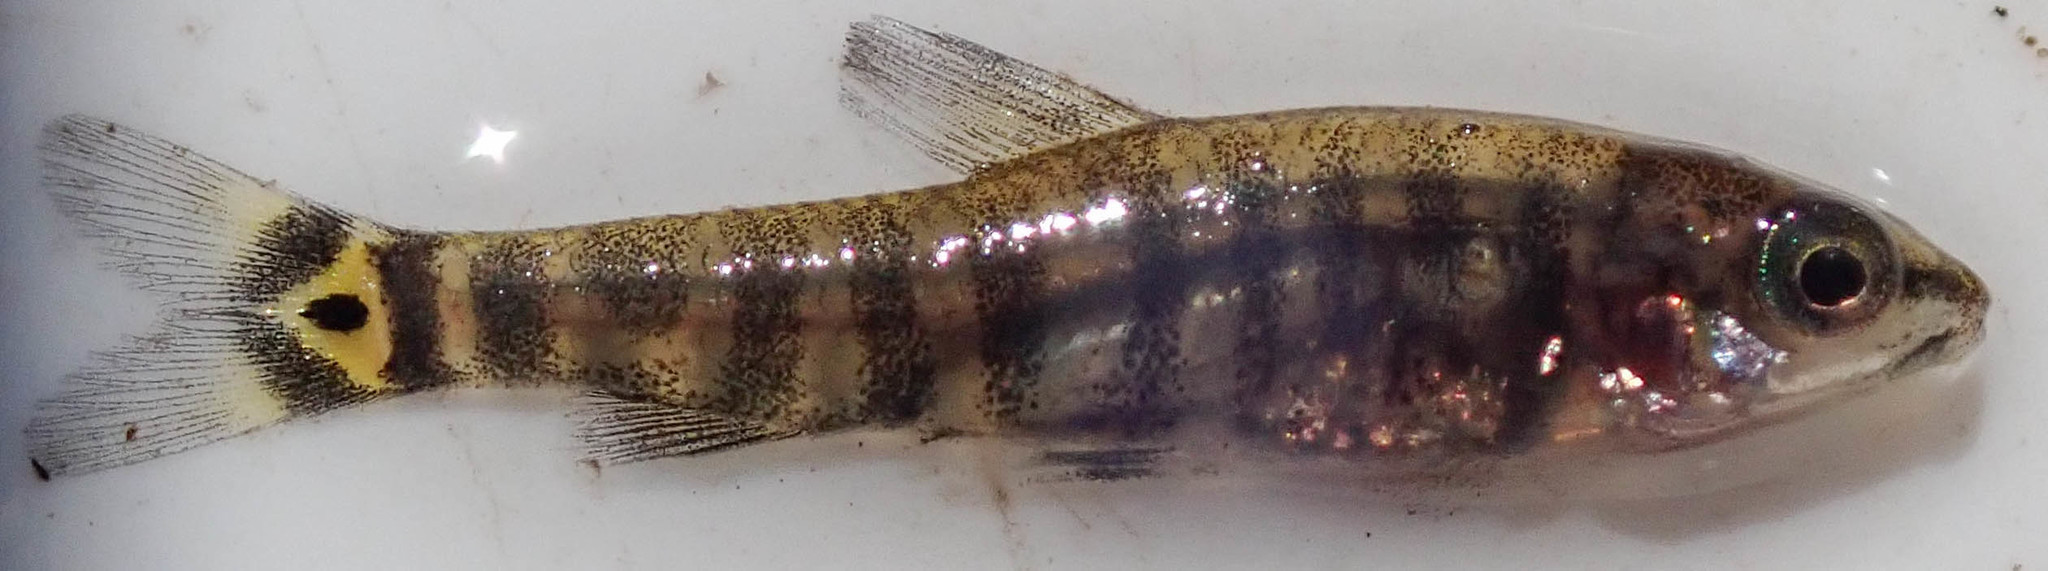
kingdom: Animalia
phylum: Chordata
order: Characiformes
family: Distichodontidae
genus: Nannocharax
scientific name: Nannocharax machadoi
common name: Dwarf citharine
